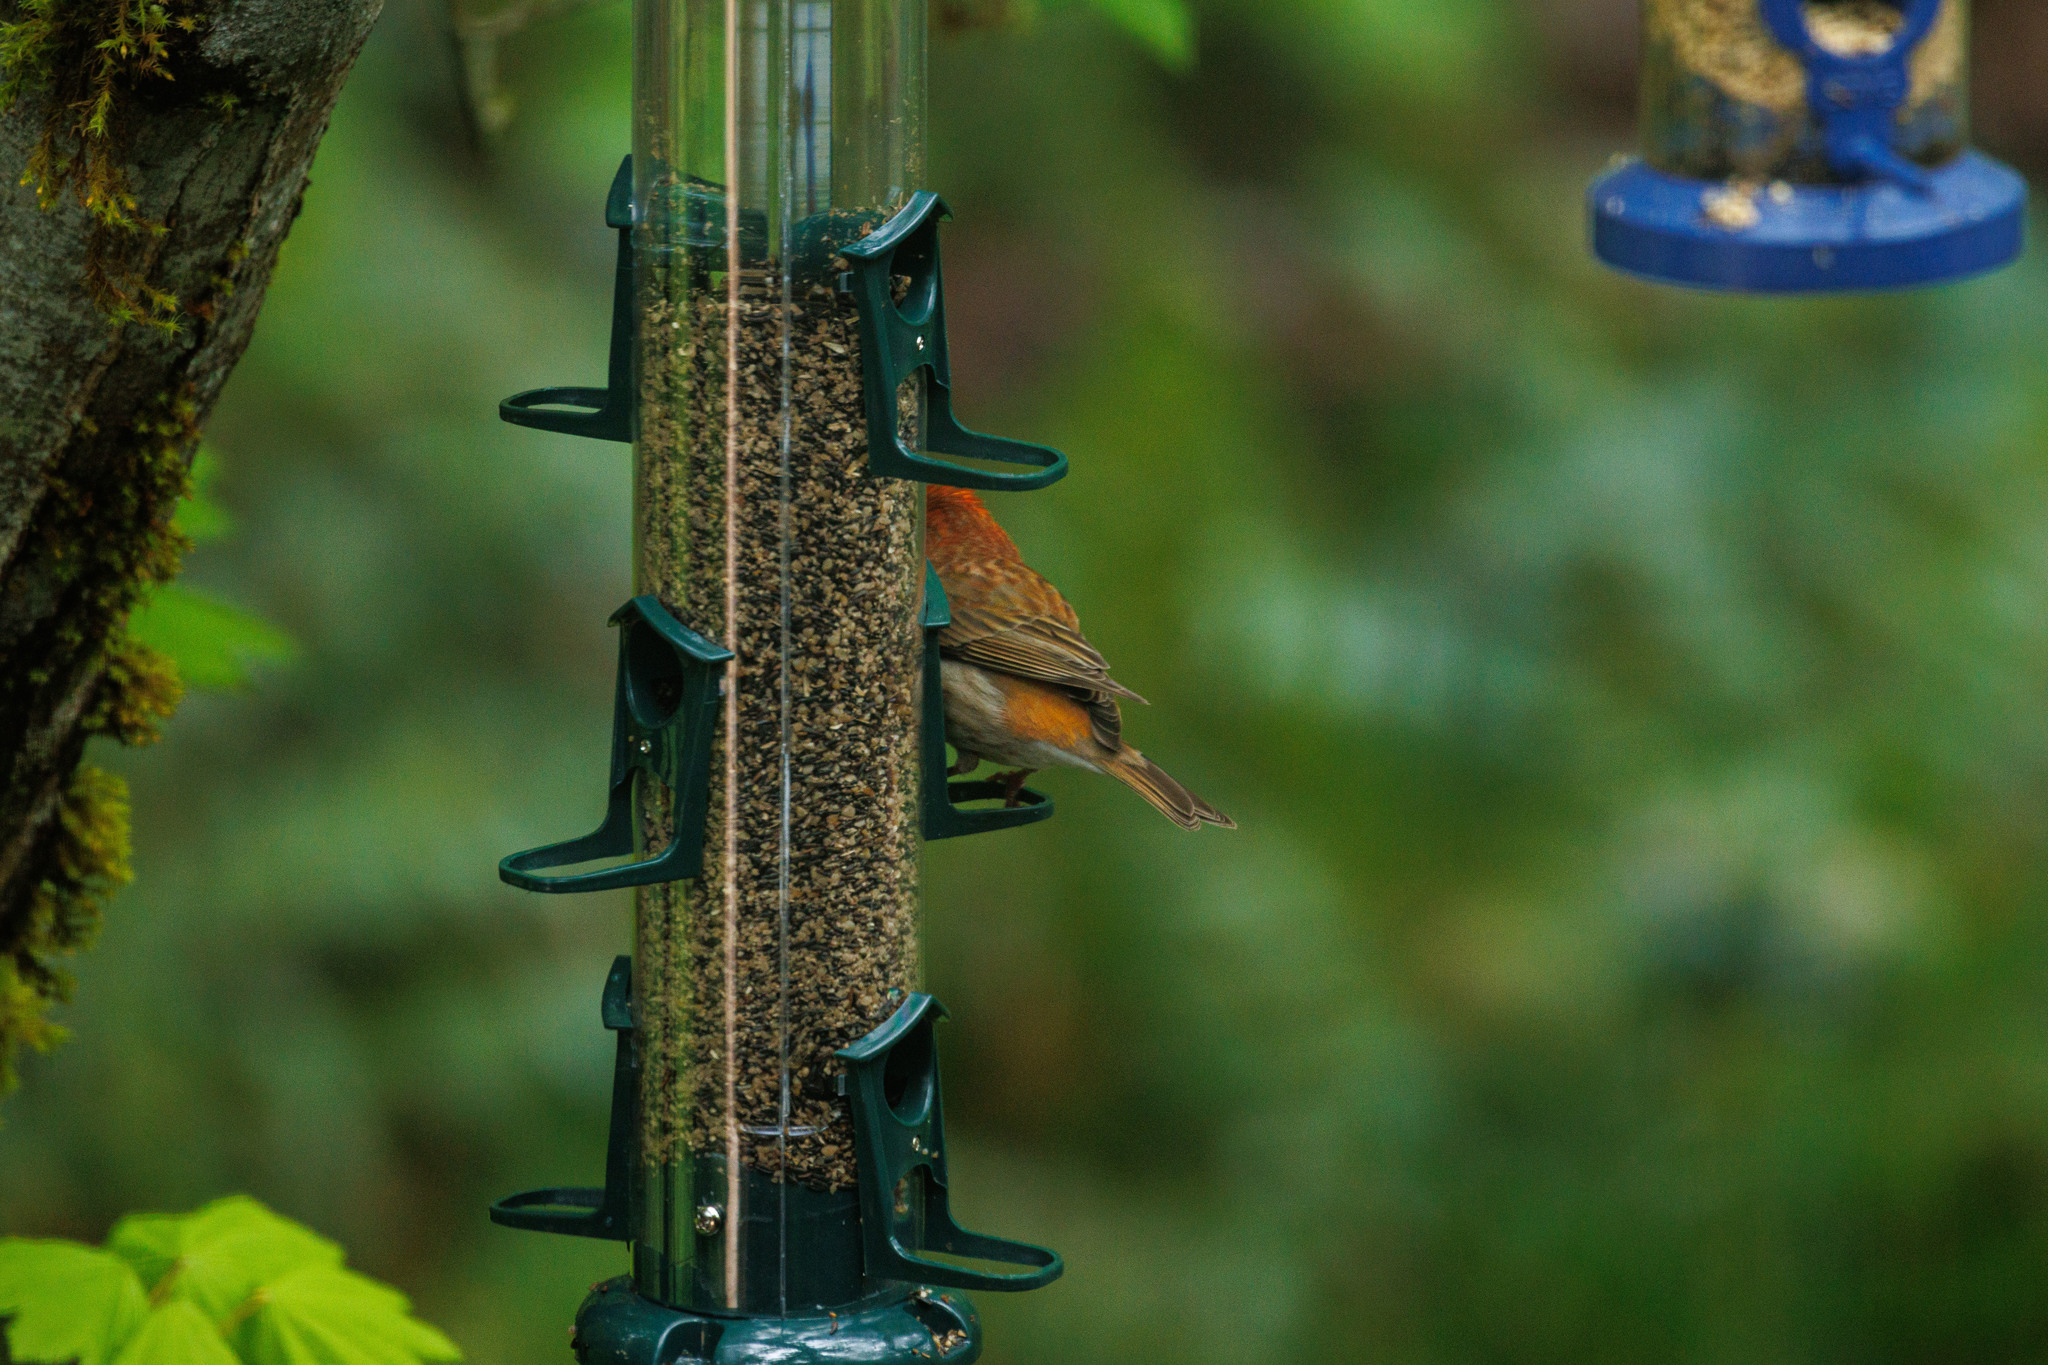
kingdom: Animalia
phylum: Chordata
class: Aves
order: Passeriformes
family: Fringillidae
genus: Haemorhous
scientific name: Haemorhous purpureus
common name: Purple finch
